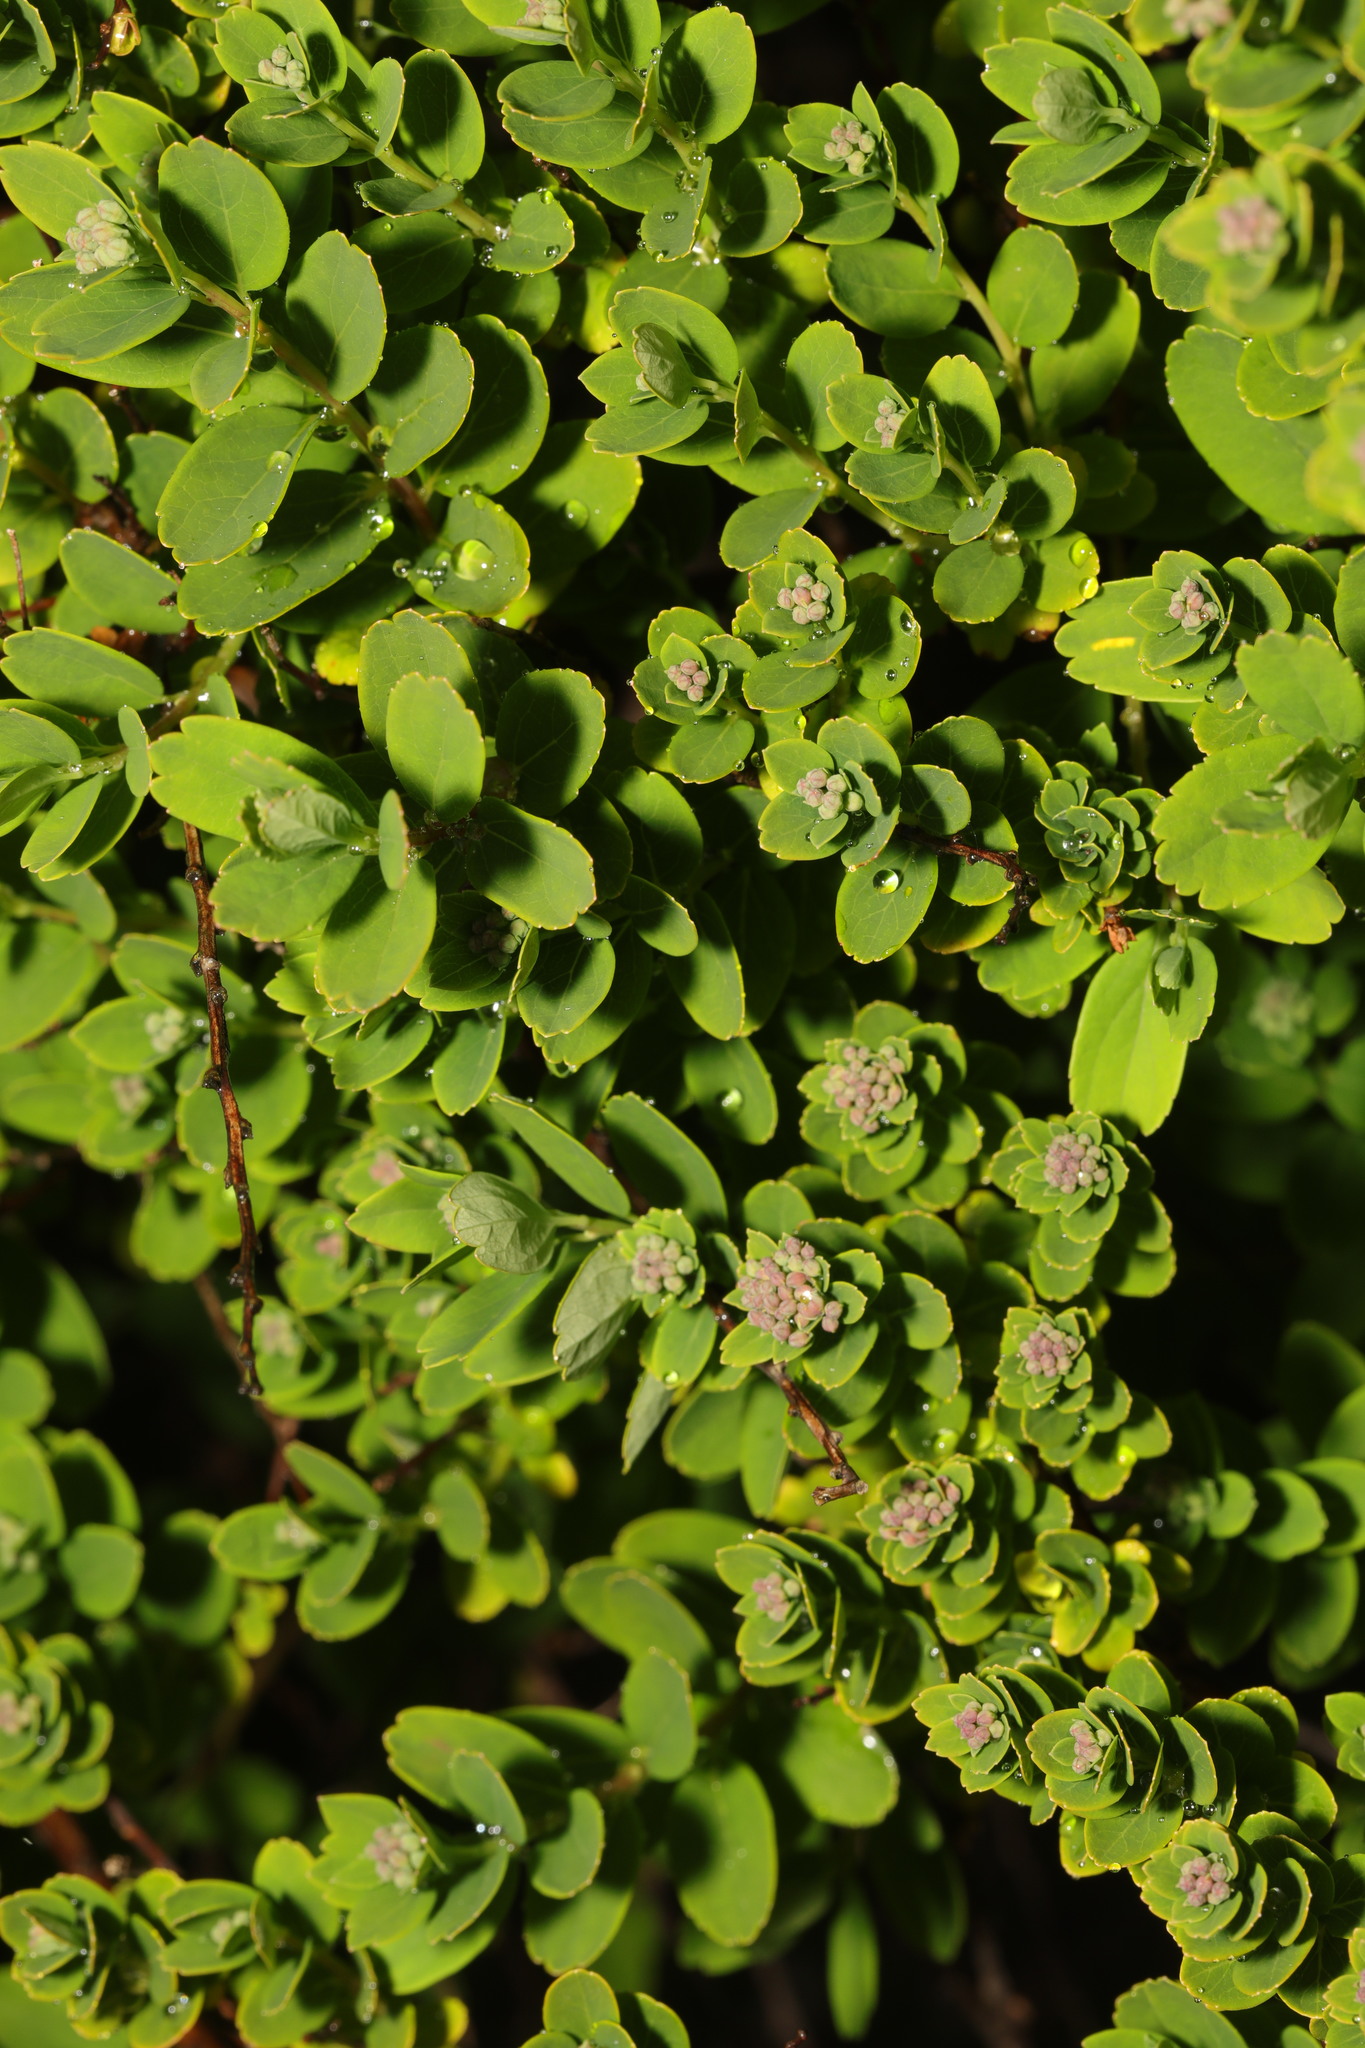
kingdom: Plantae
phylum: Tracheophyta
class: Magnoliopsida
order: Saxifragales
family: Crassulaceae
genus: Rhodiola
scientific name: Rhodiola rosea
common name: Roseroot
